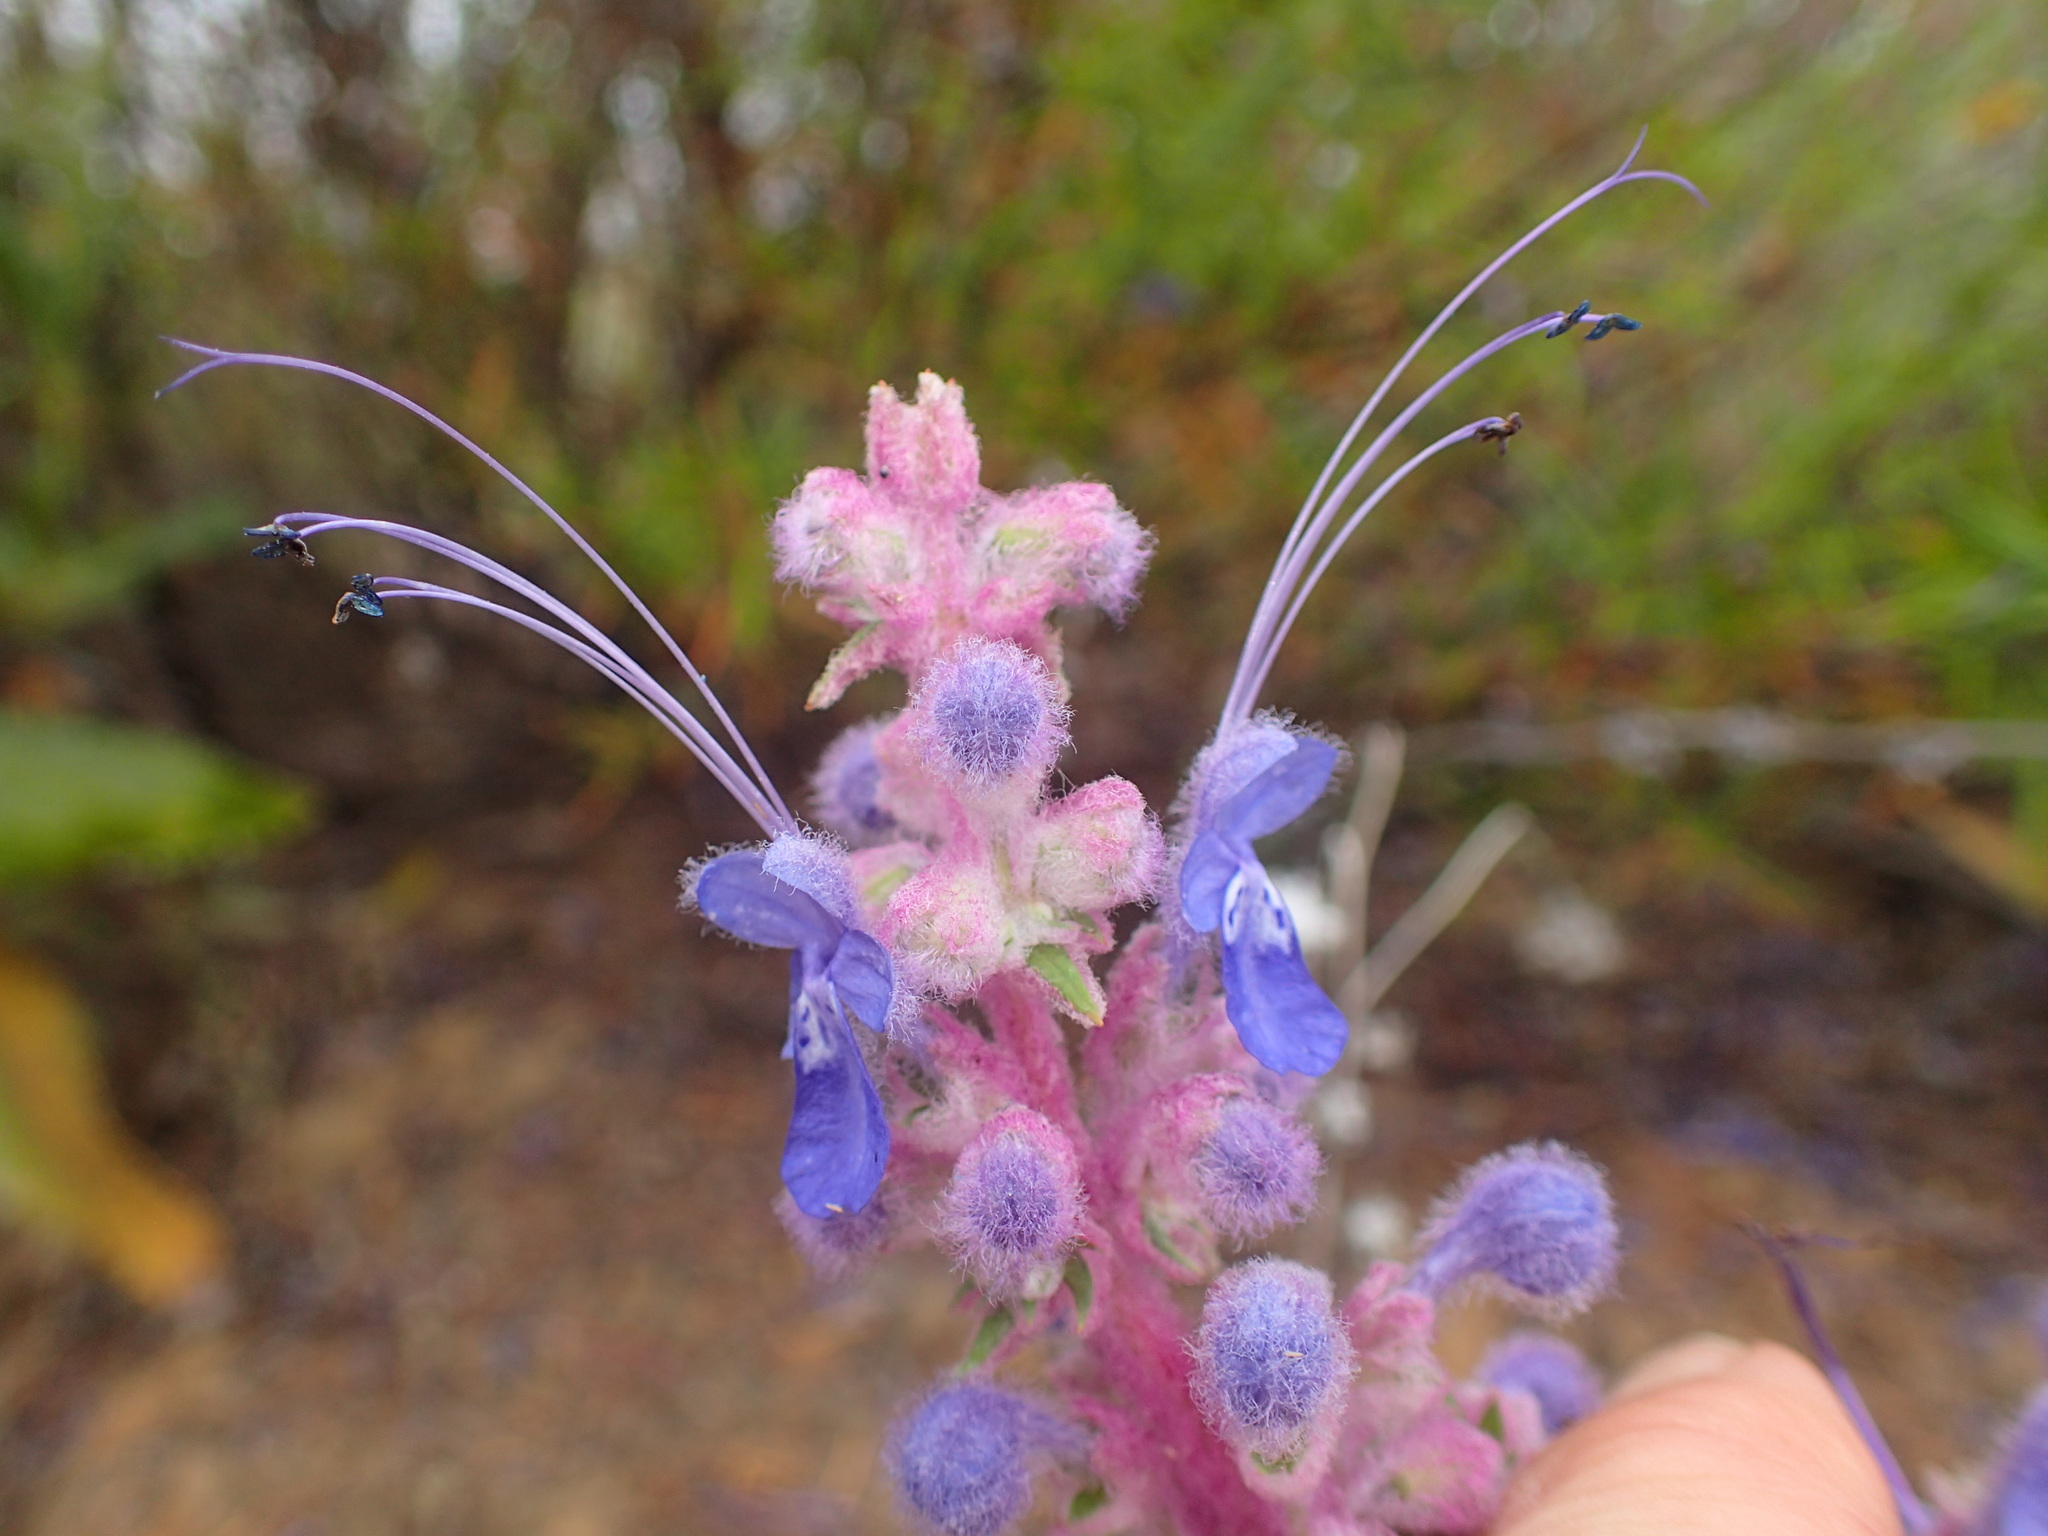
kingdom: Plantae
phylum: Tracheophyta
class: Magnoliopsida
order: Lamiales
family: Lamiaceae
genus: Trichostema
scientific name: Trichostema lanatum
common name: Woolly bluecurls
